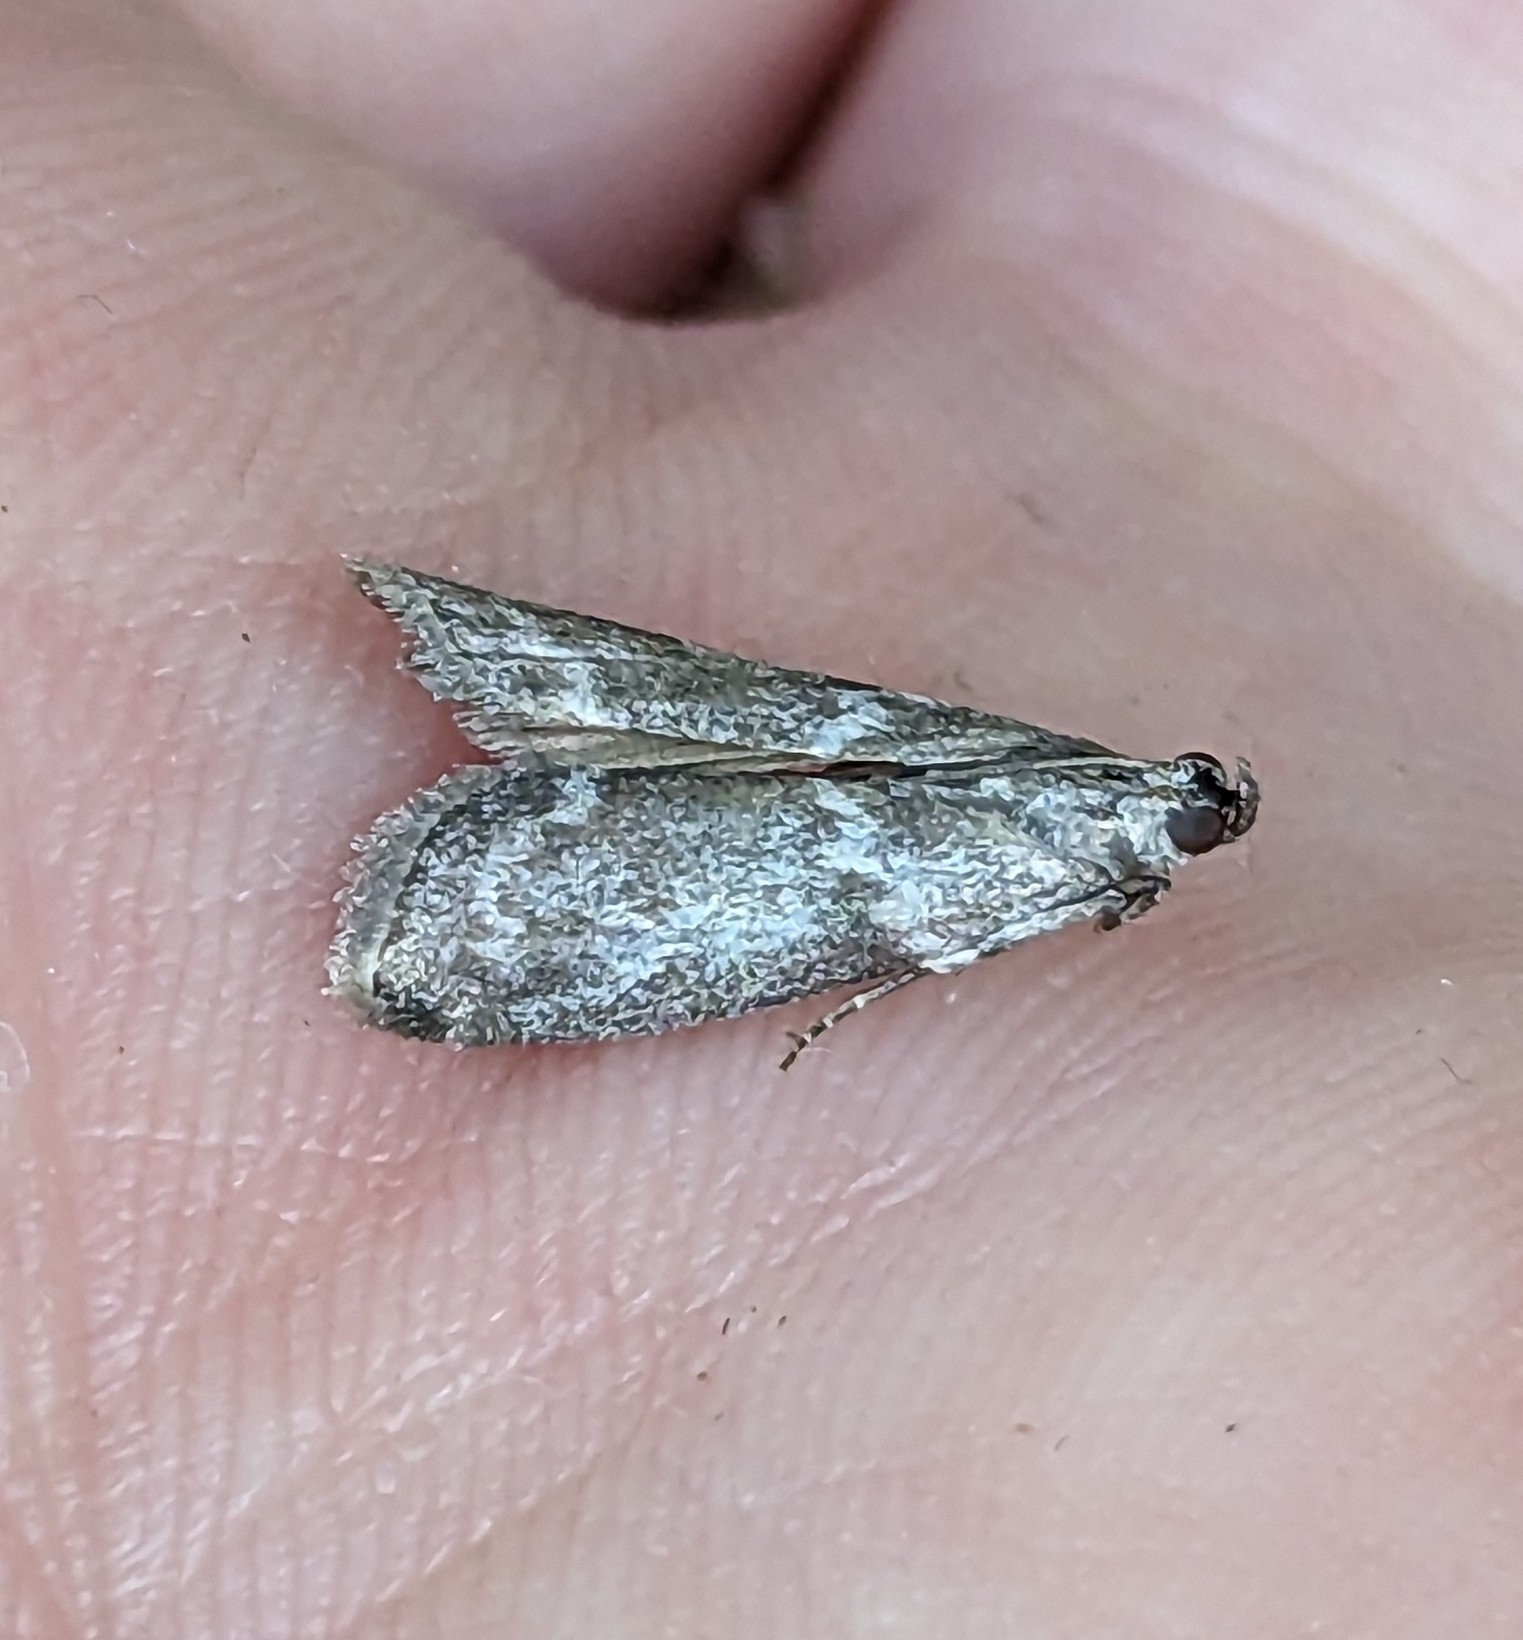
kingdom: Animalia
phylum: Arthropoda
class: Insecta
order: Lepidoptera
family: Pyralidae
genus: Oreana
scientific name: Oreana unicolorella
